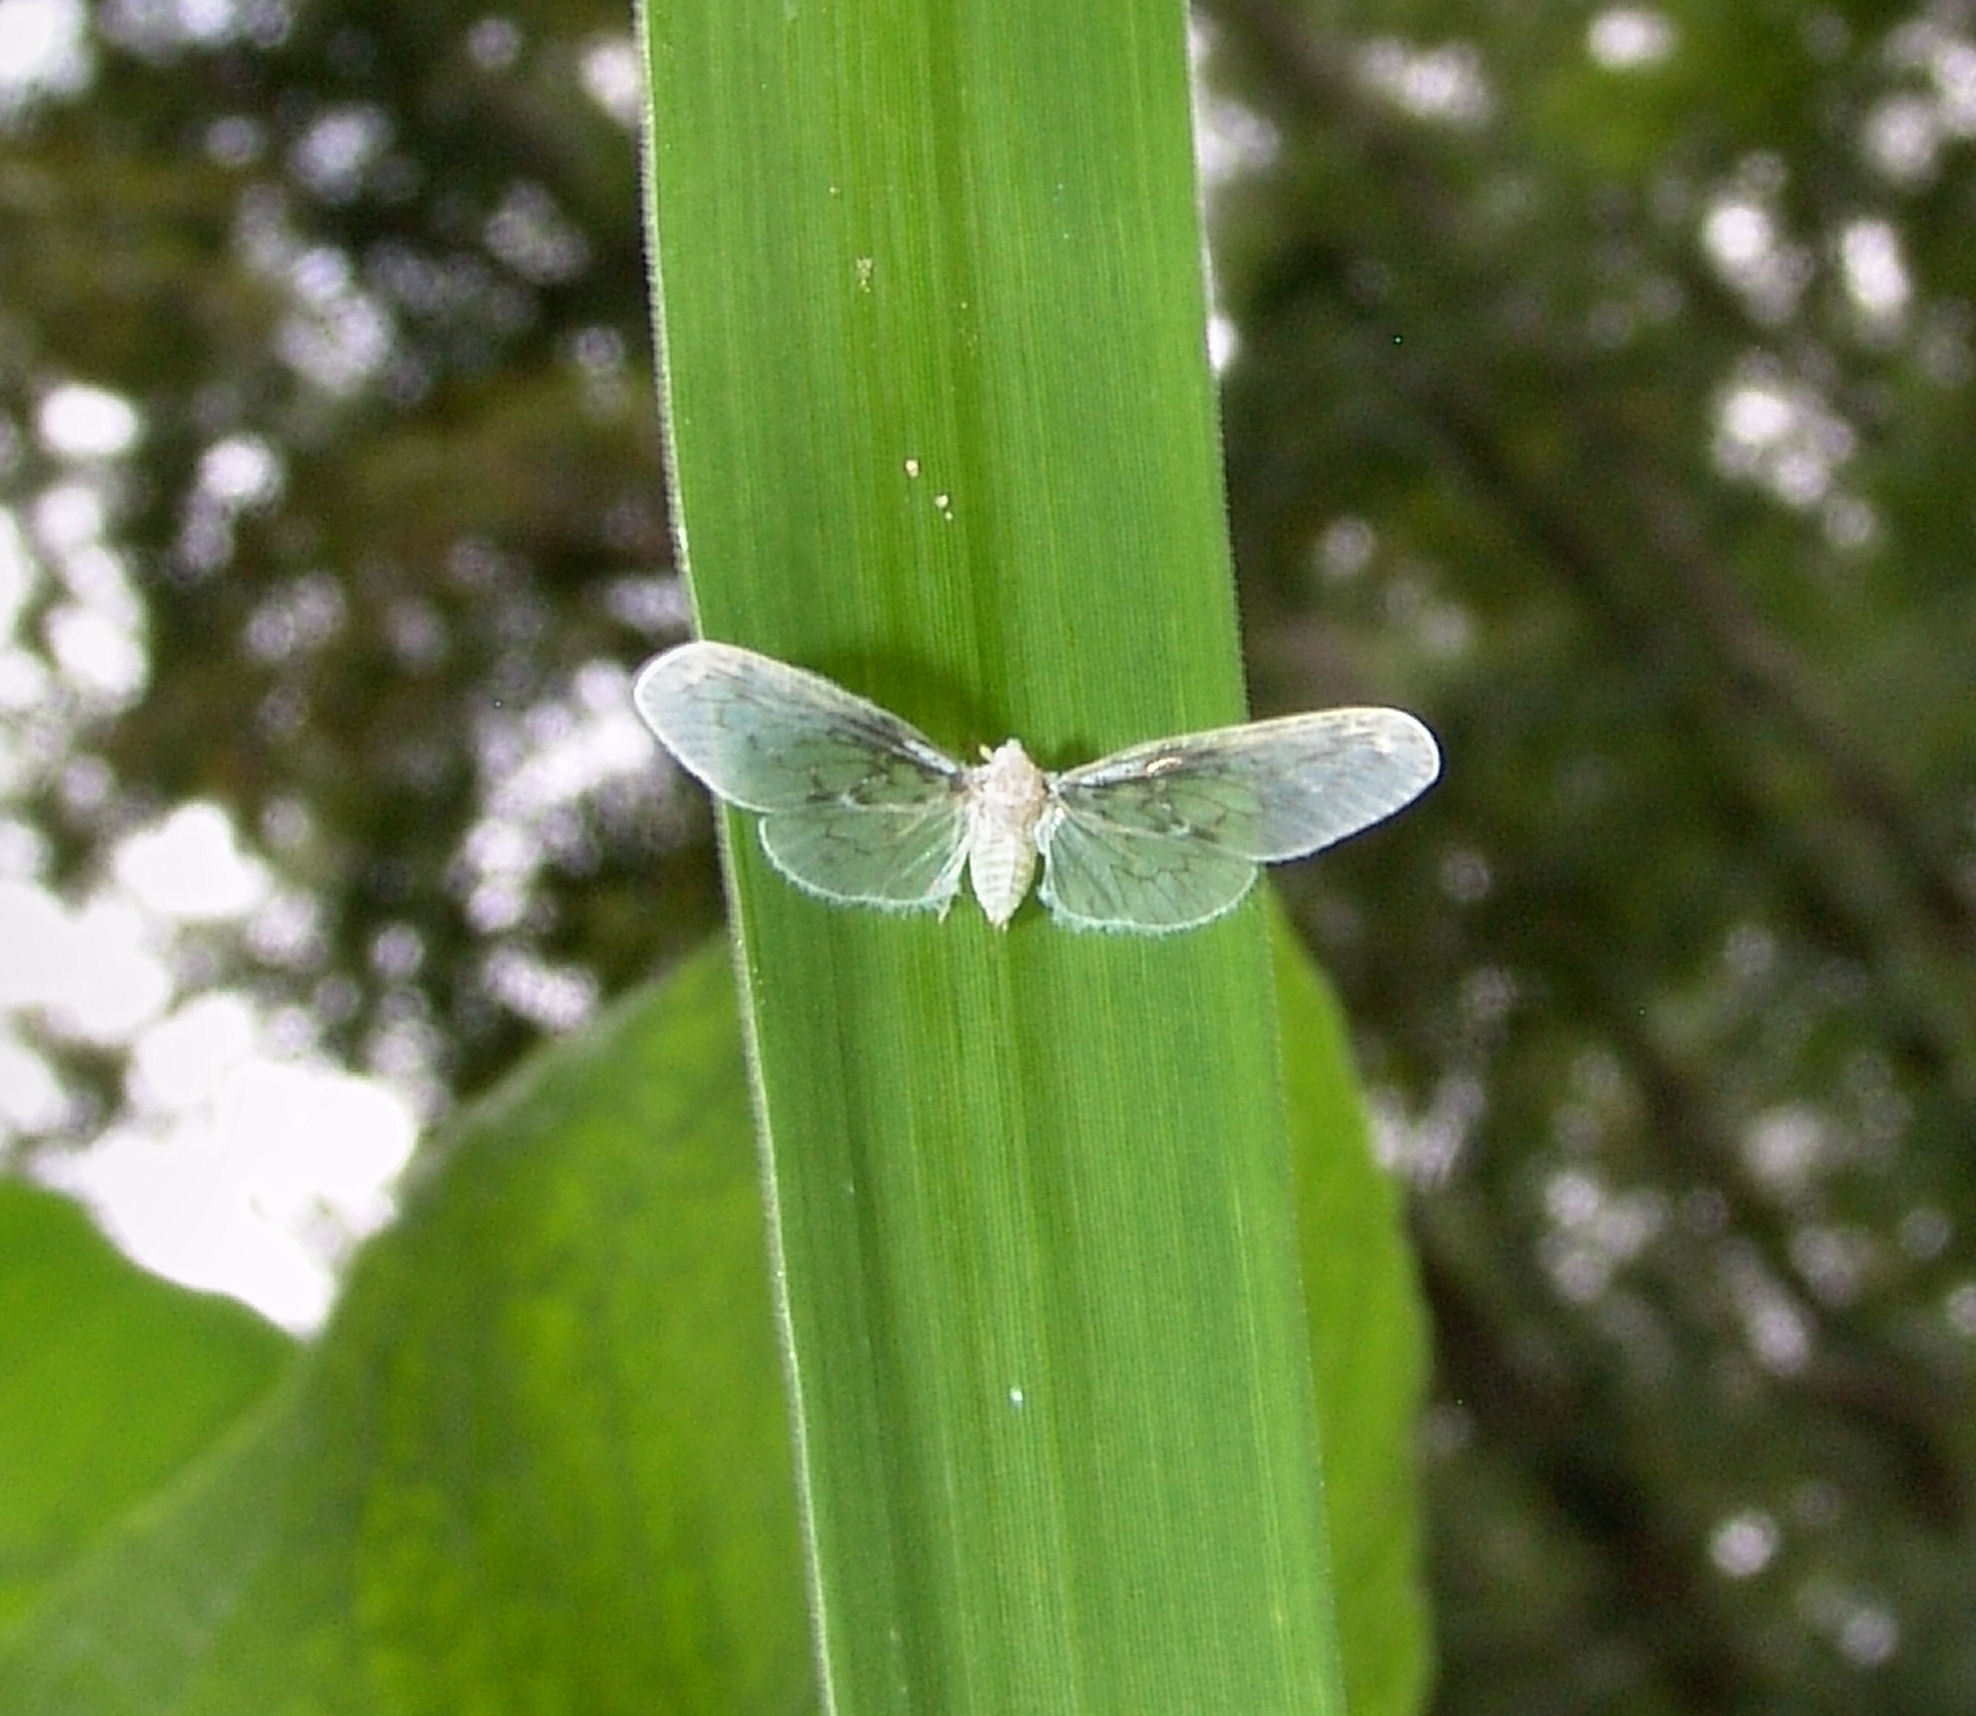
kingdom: Animalia
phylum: Arthropoda
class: Insecta
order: Hemiptera
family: Derbidae
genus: Paramysidia
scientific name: Paramysidia mississippiensis
